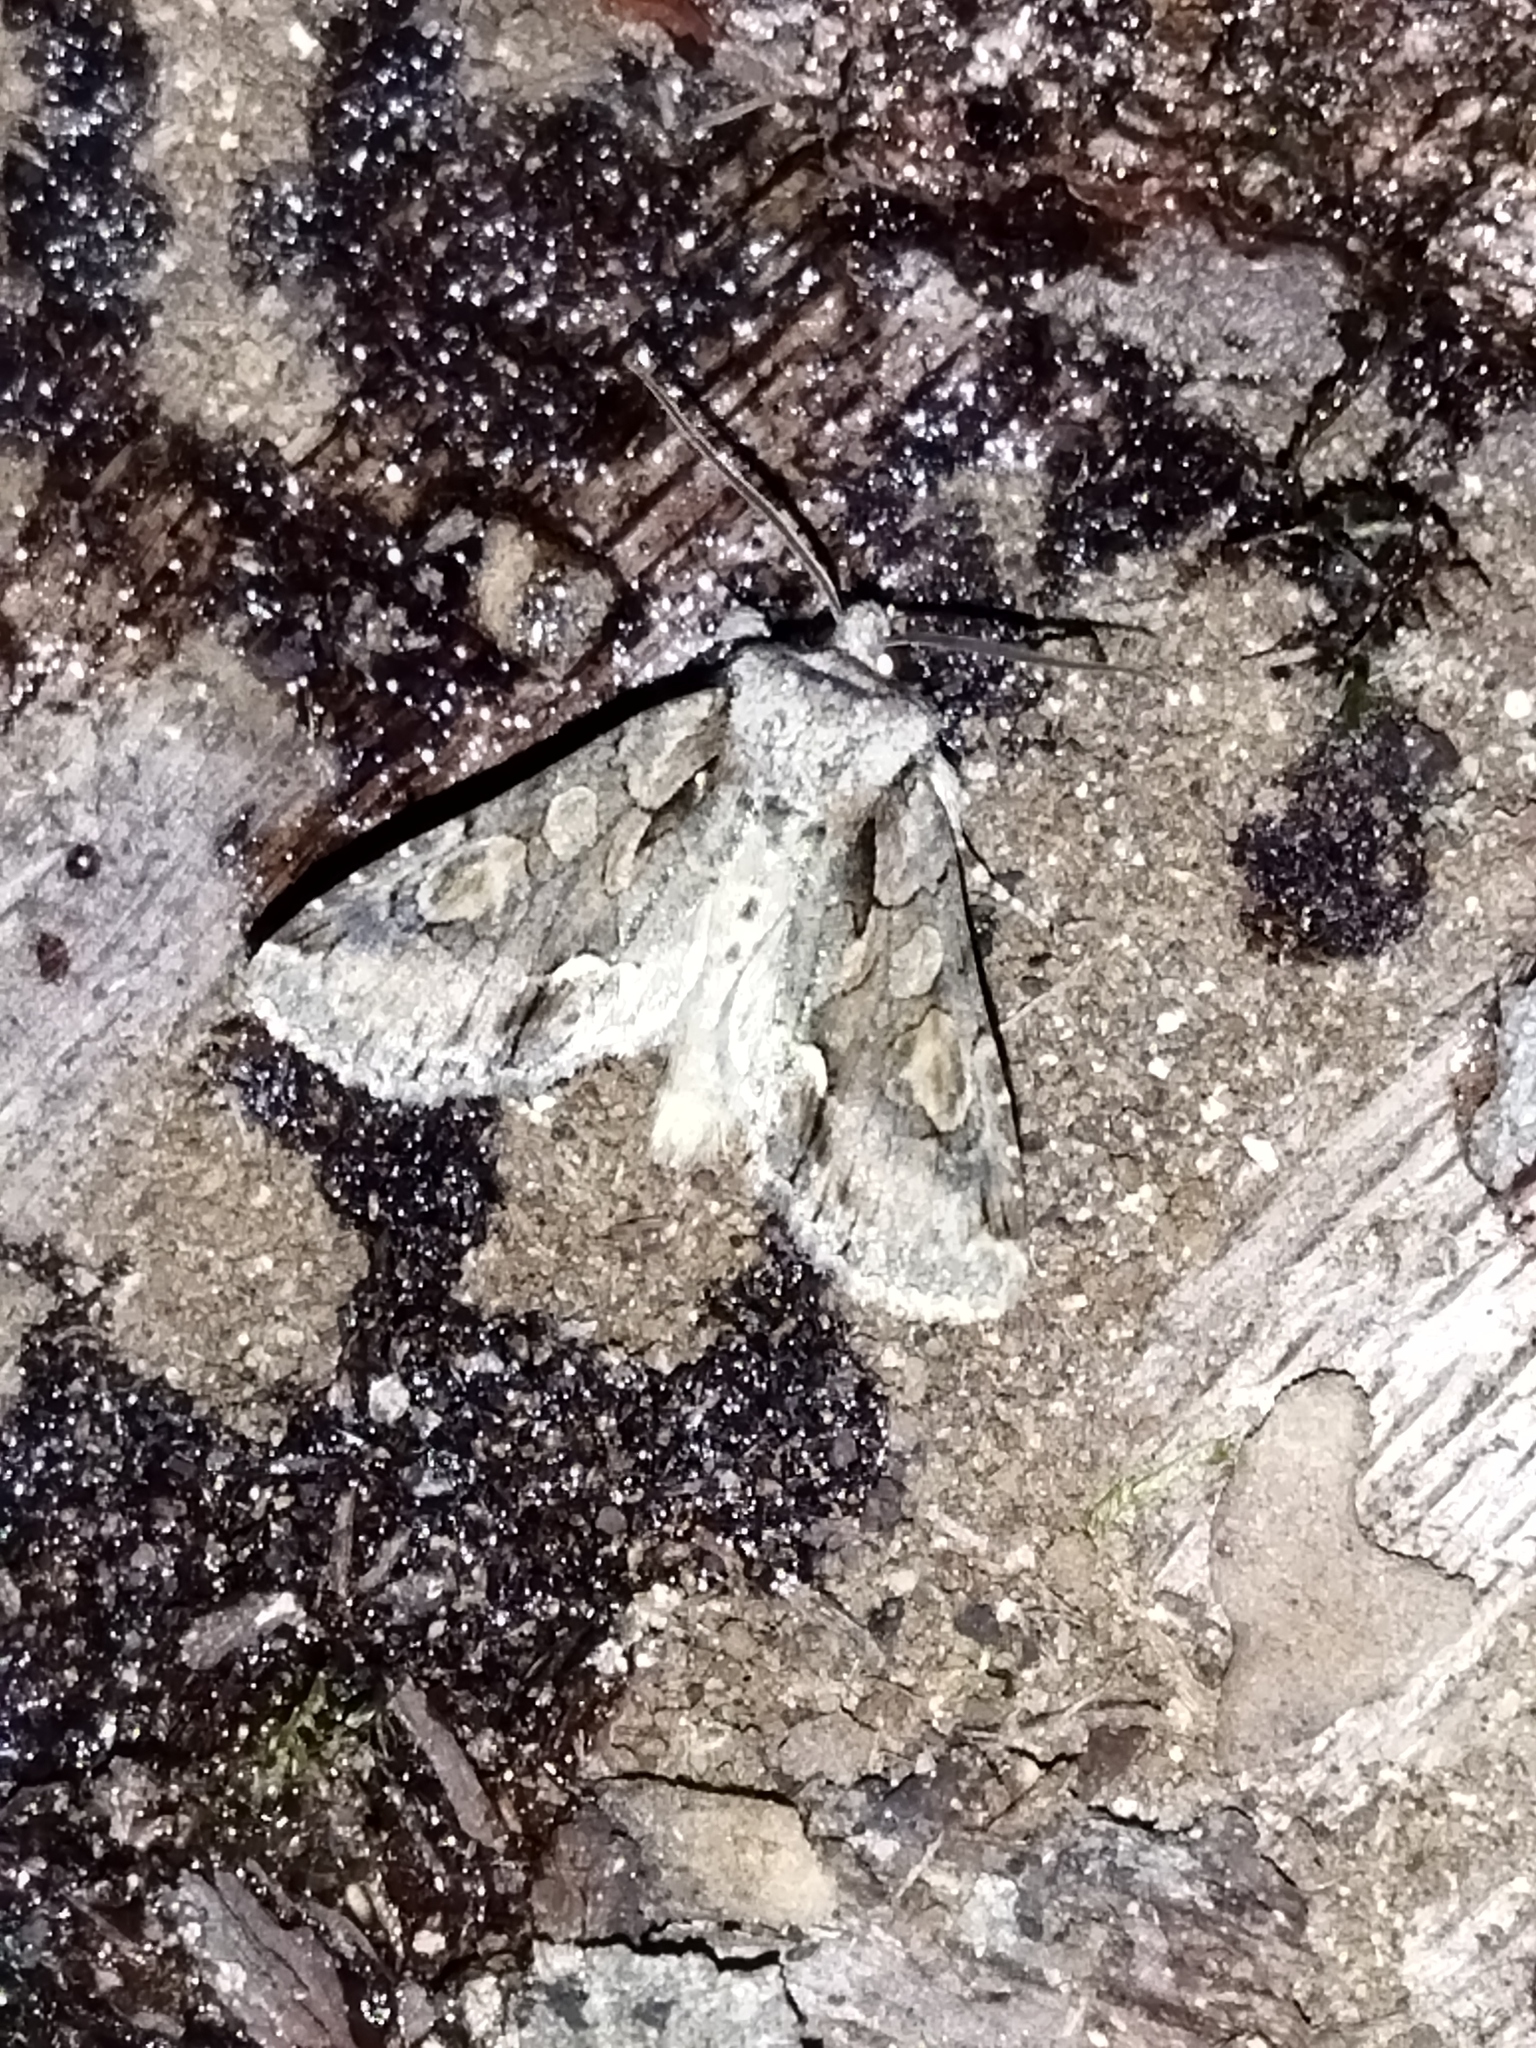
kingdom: Animalia
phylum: Arthropoda
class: Insecta
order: Lepidoptera
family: Noctuidae
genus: Allophyes
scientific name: Allophyes oxyacanthae
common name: Green-brindled crescent
